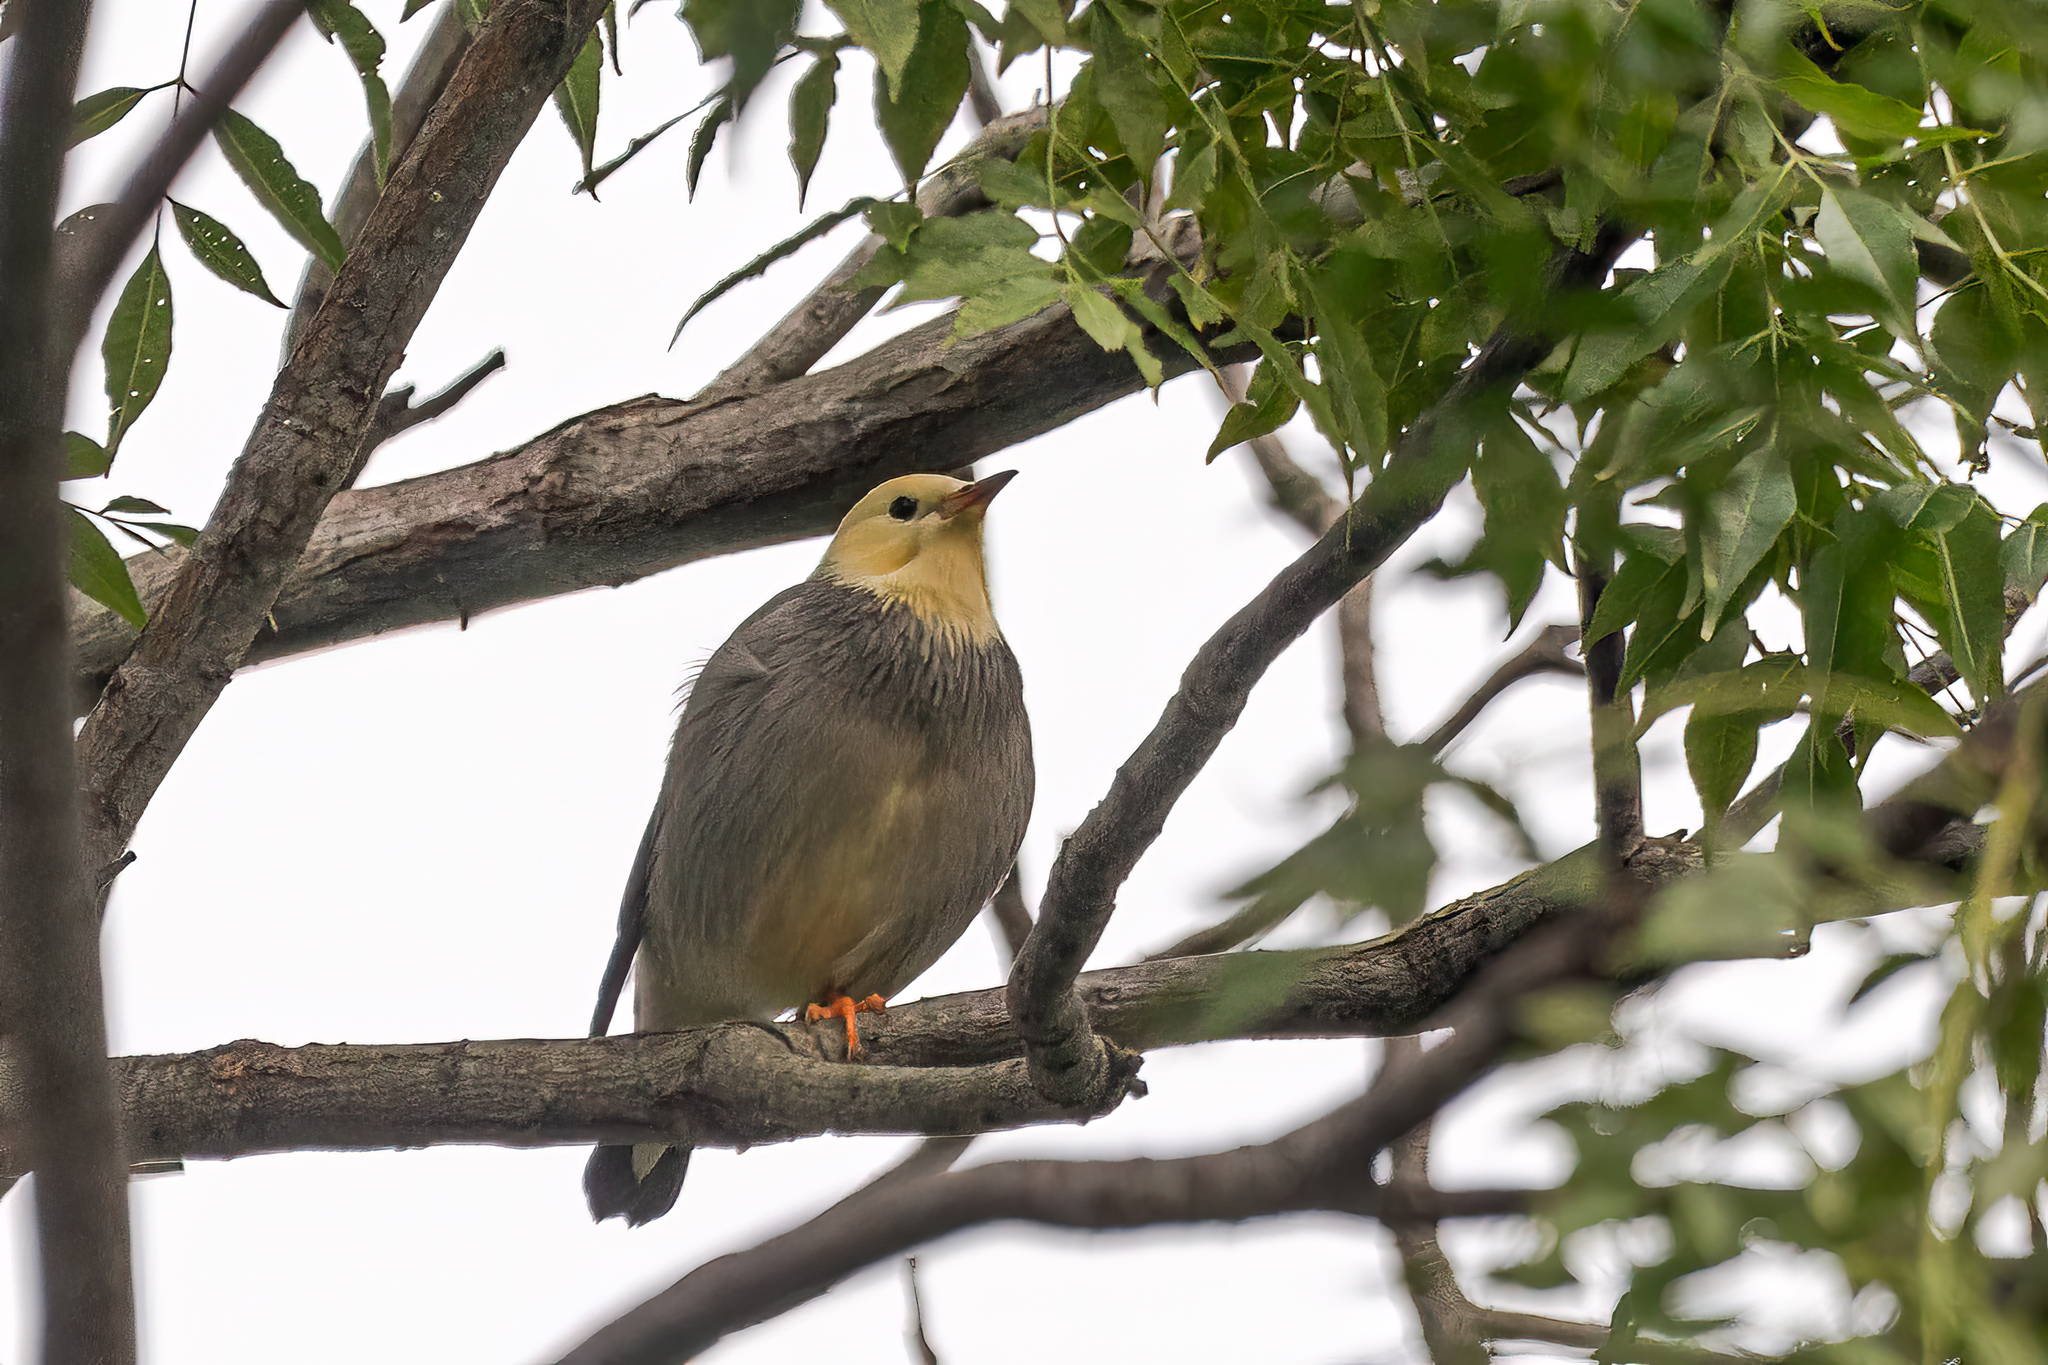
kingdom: Animalia
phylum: Chordata
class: Aves
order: Passeriformes
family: Sturnidae
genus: Spodiopsar
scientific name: Spodiopsar sericeus
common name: Red-billed starling
